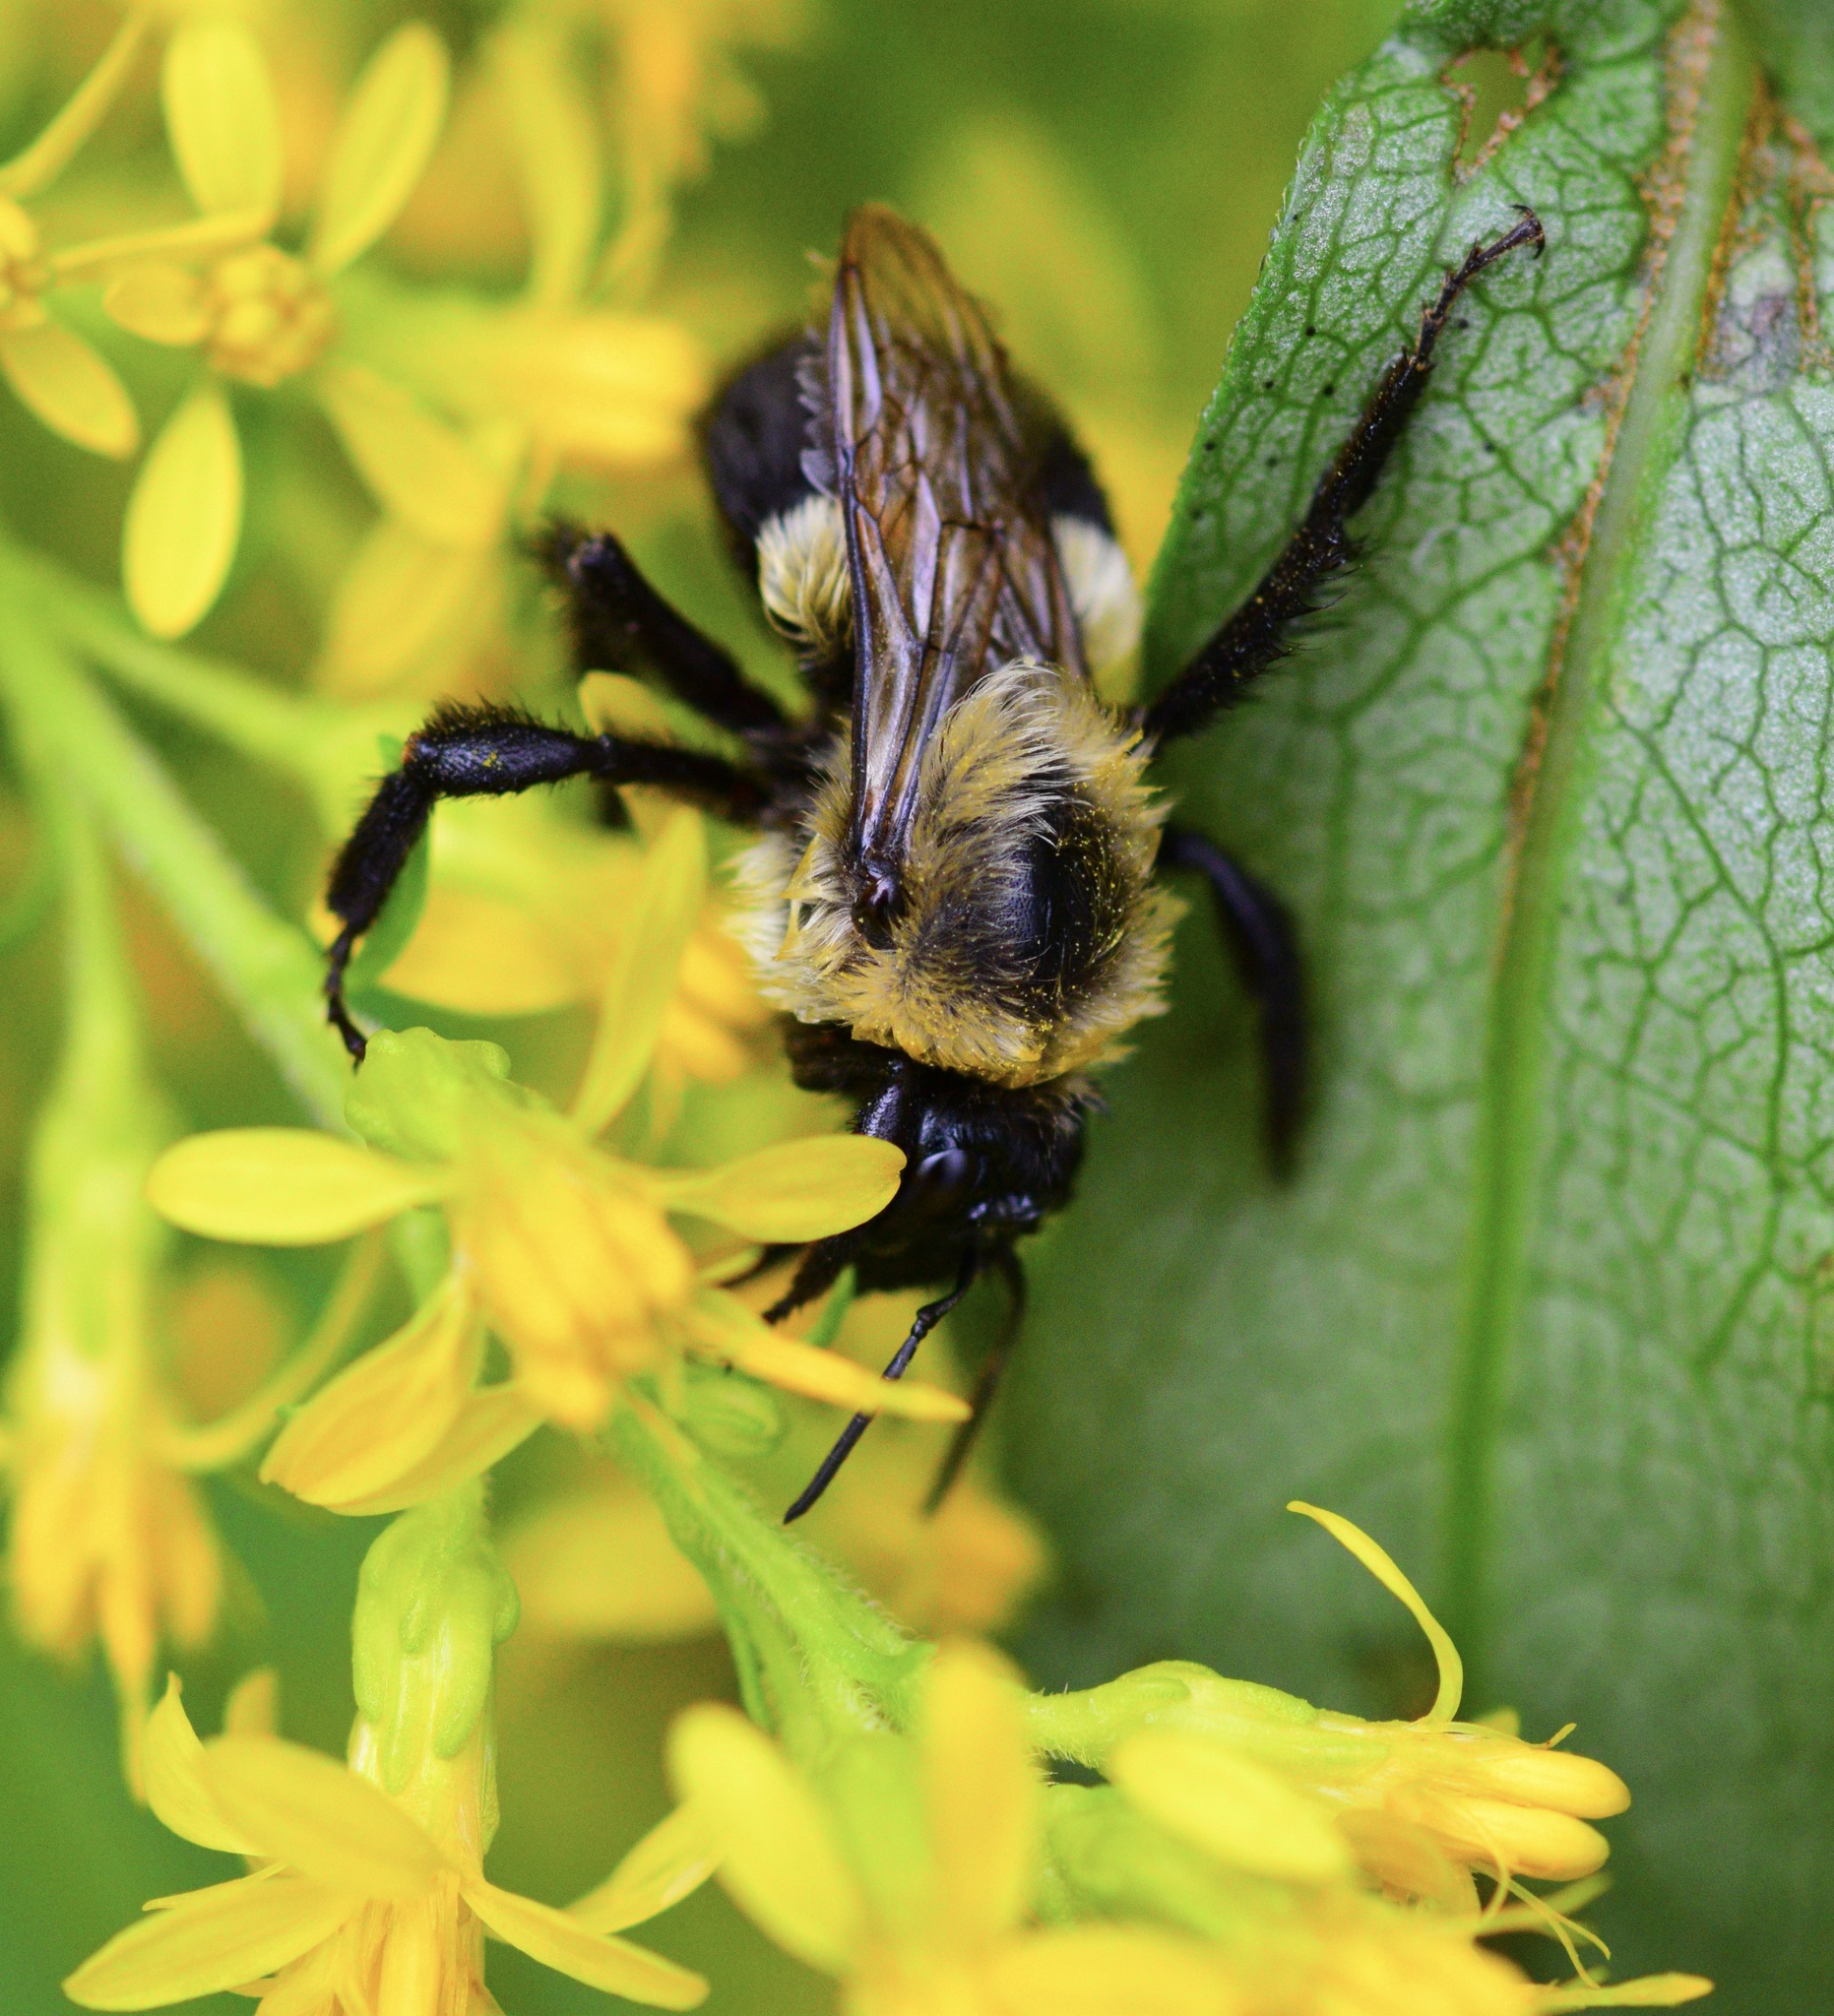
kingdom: Animalia
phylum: Arthropoda
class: Insecta
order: Hymenoptera
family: Apidae
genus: Bombus
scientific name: Bombus impatiens
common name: Common eastern bumble bee
